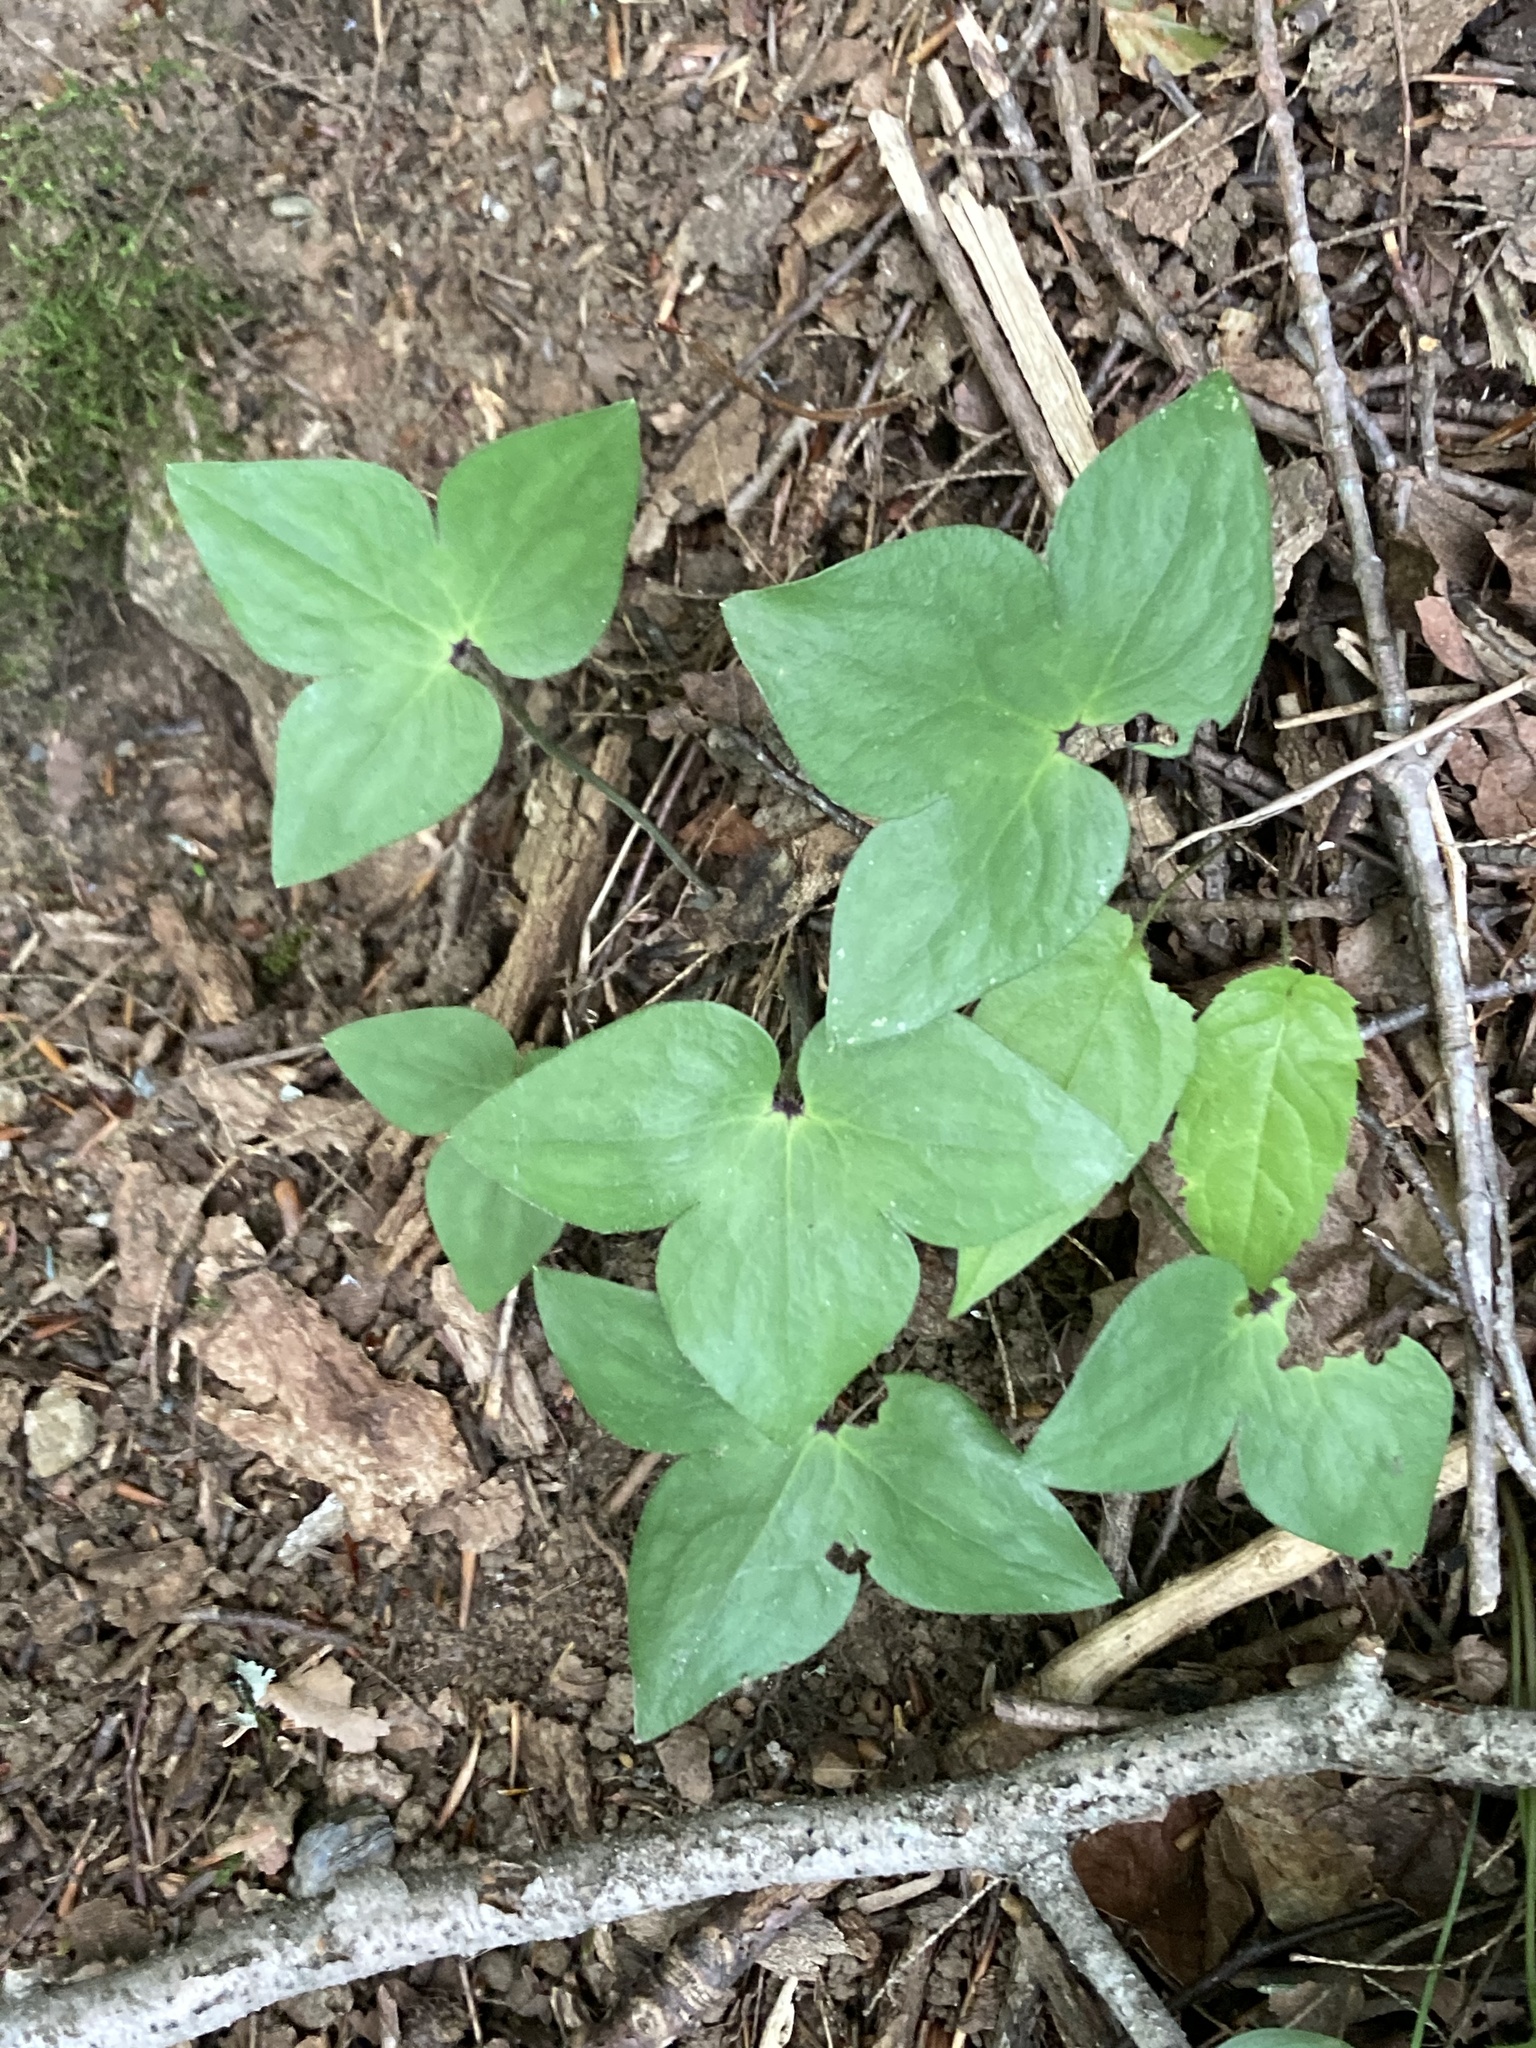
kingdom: Plantae
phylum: Tracheophyta
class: Magnoliopsida
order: Ranunculales
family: Ranunculaceae
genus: Hepatica
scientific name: Hepatica acutiloba
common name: Sharp-lobed hepatica
